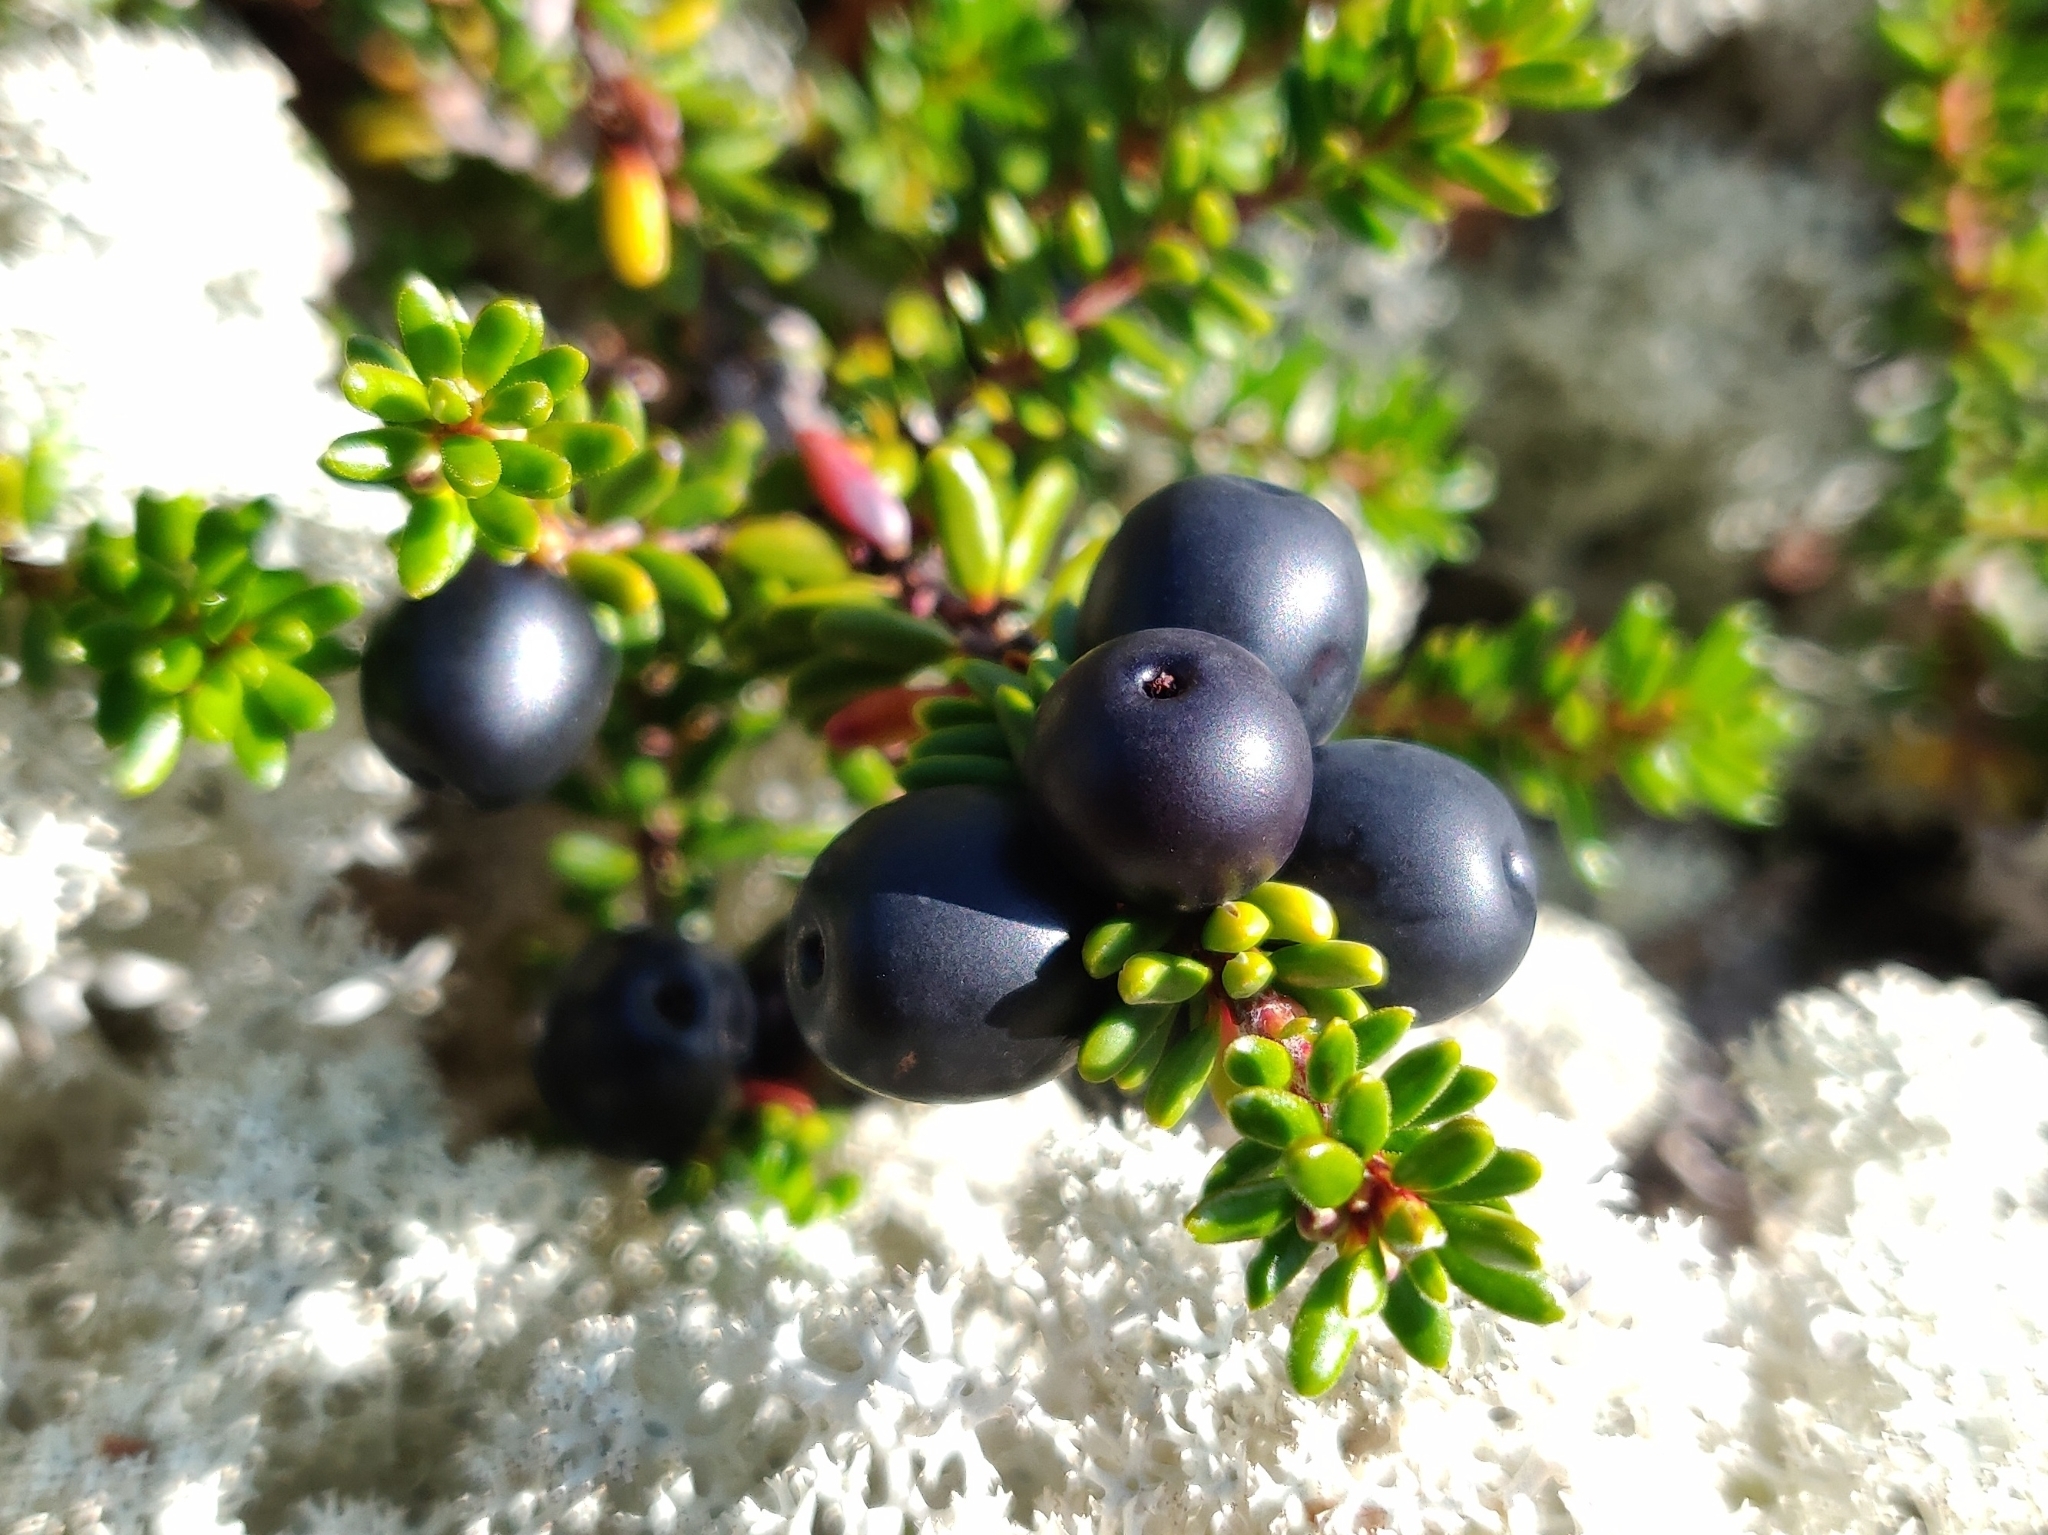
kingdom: Plantae
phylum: Tracheophyta
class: Magnoliopsida
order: Ericales
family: Ericaceae
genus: Empetrum
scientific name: Empetrum nigrum
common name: Black crowberry
